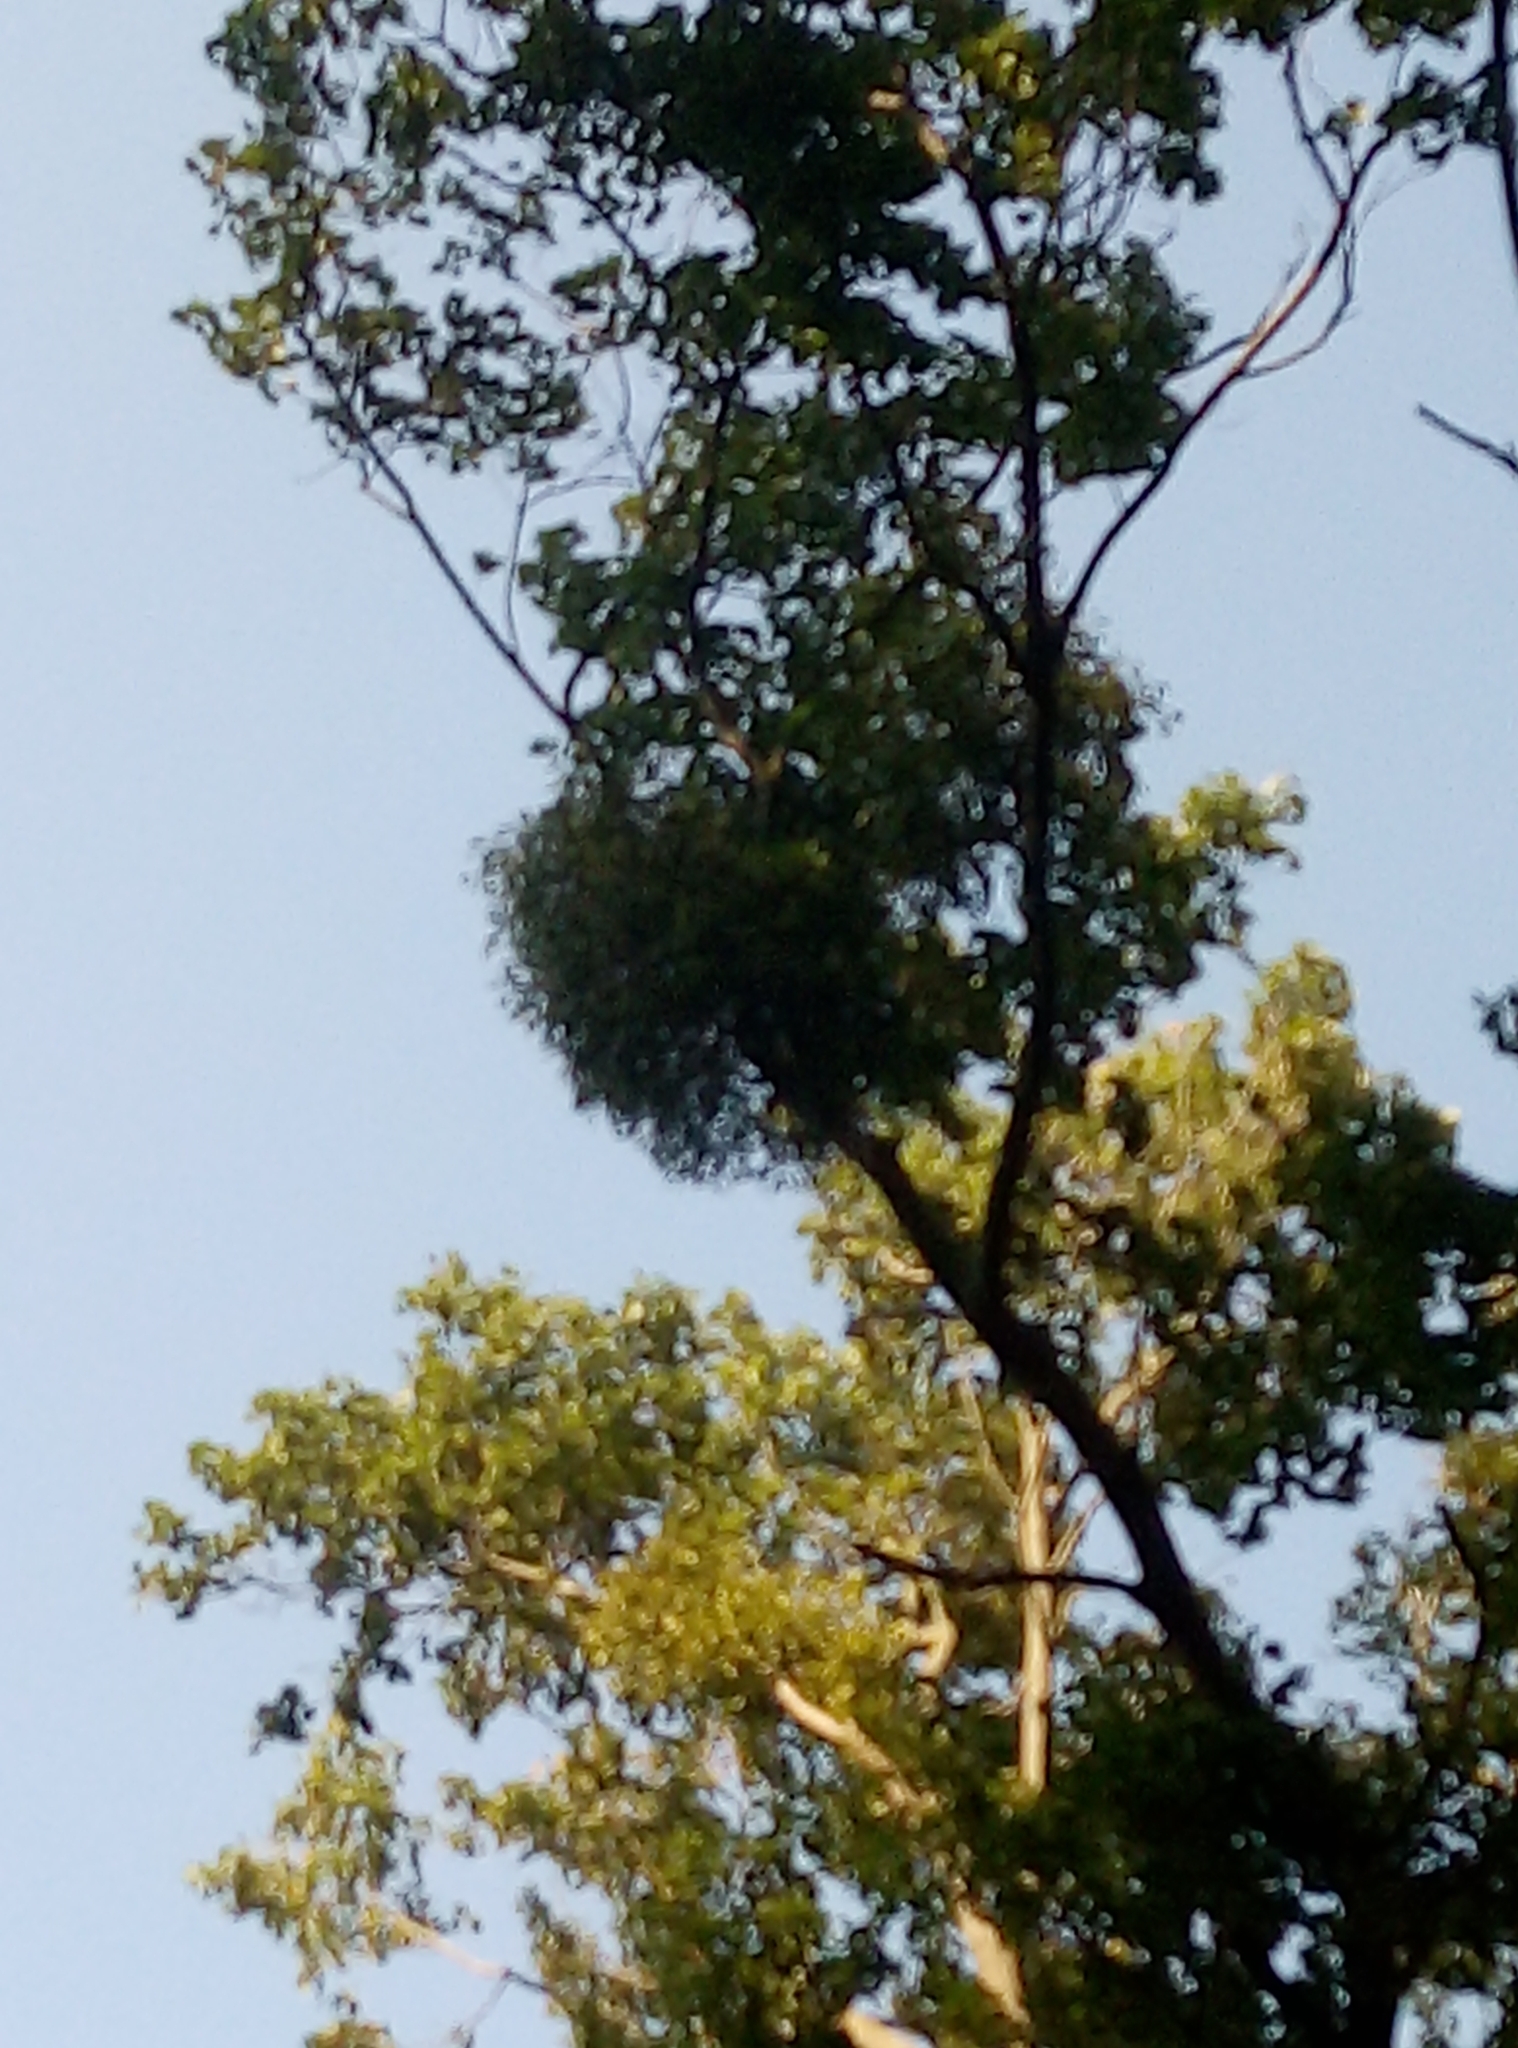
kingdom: Plantae
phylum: Tracheophyta
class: Magnoliopsida
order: Santalales
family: Viscaceae
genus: Viscum
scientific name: Viscum album
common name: Mistletoe
